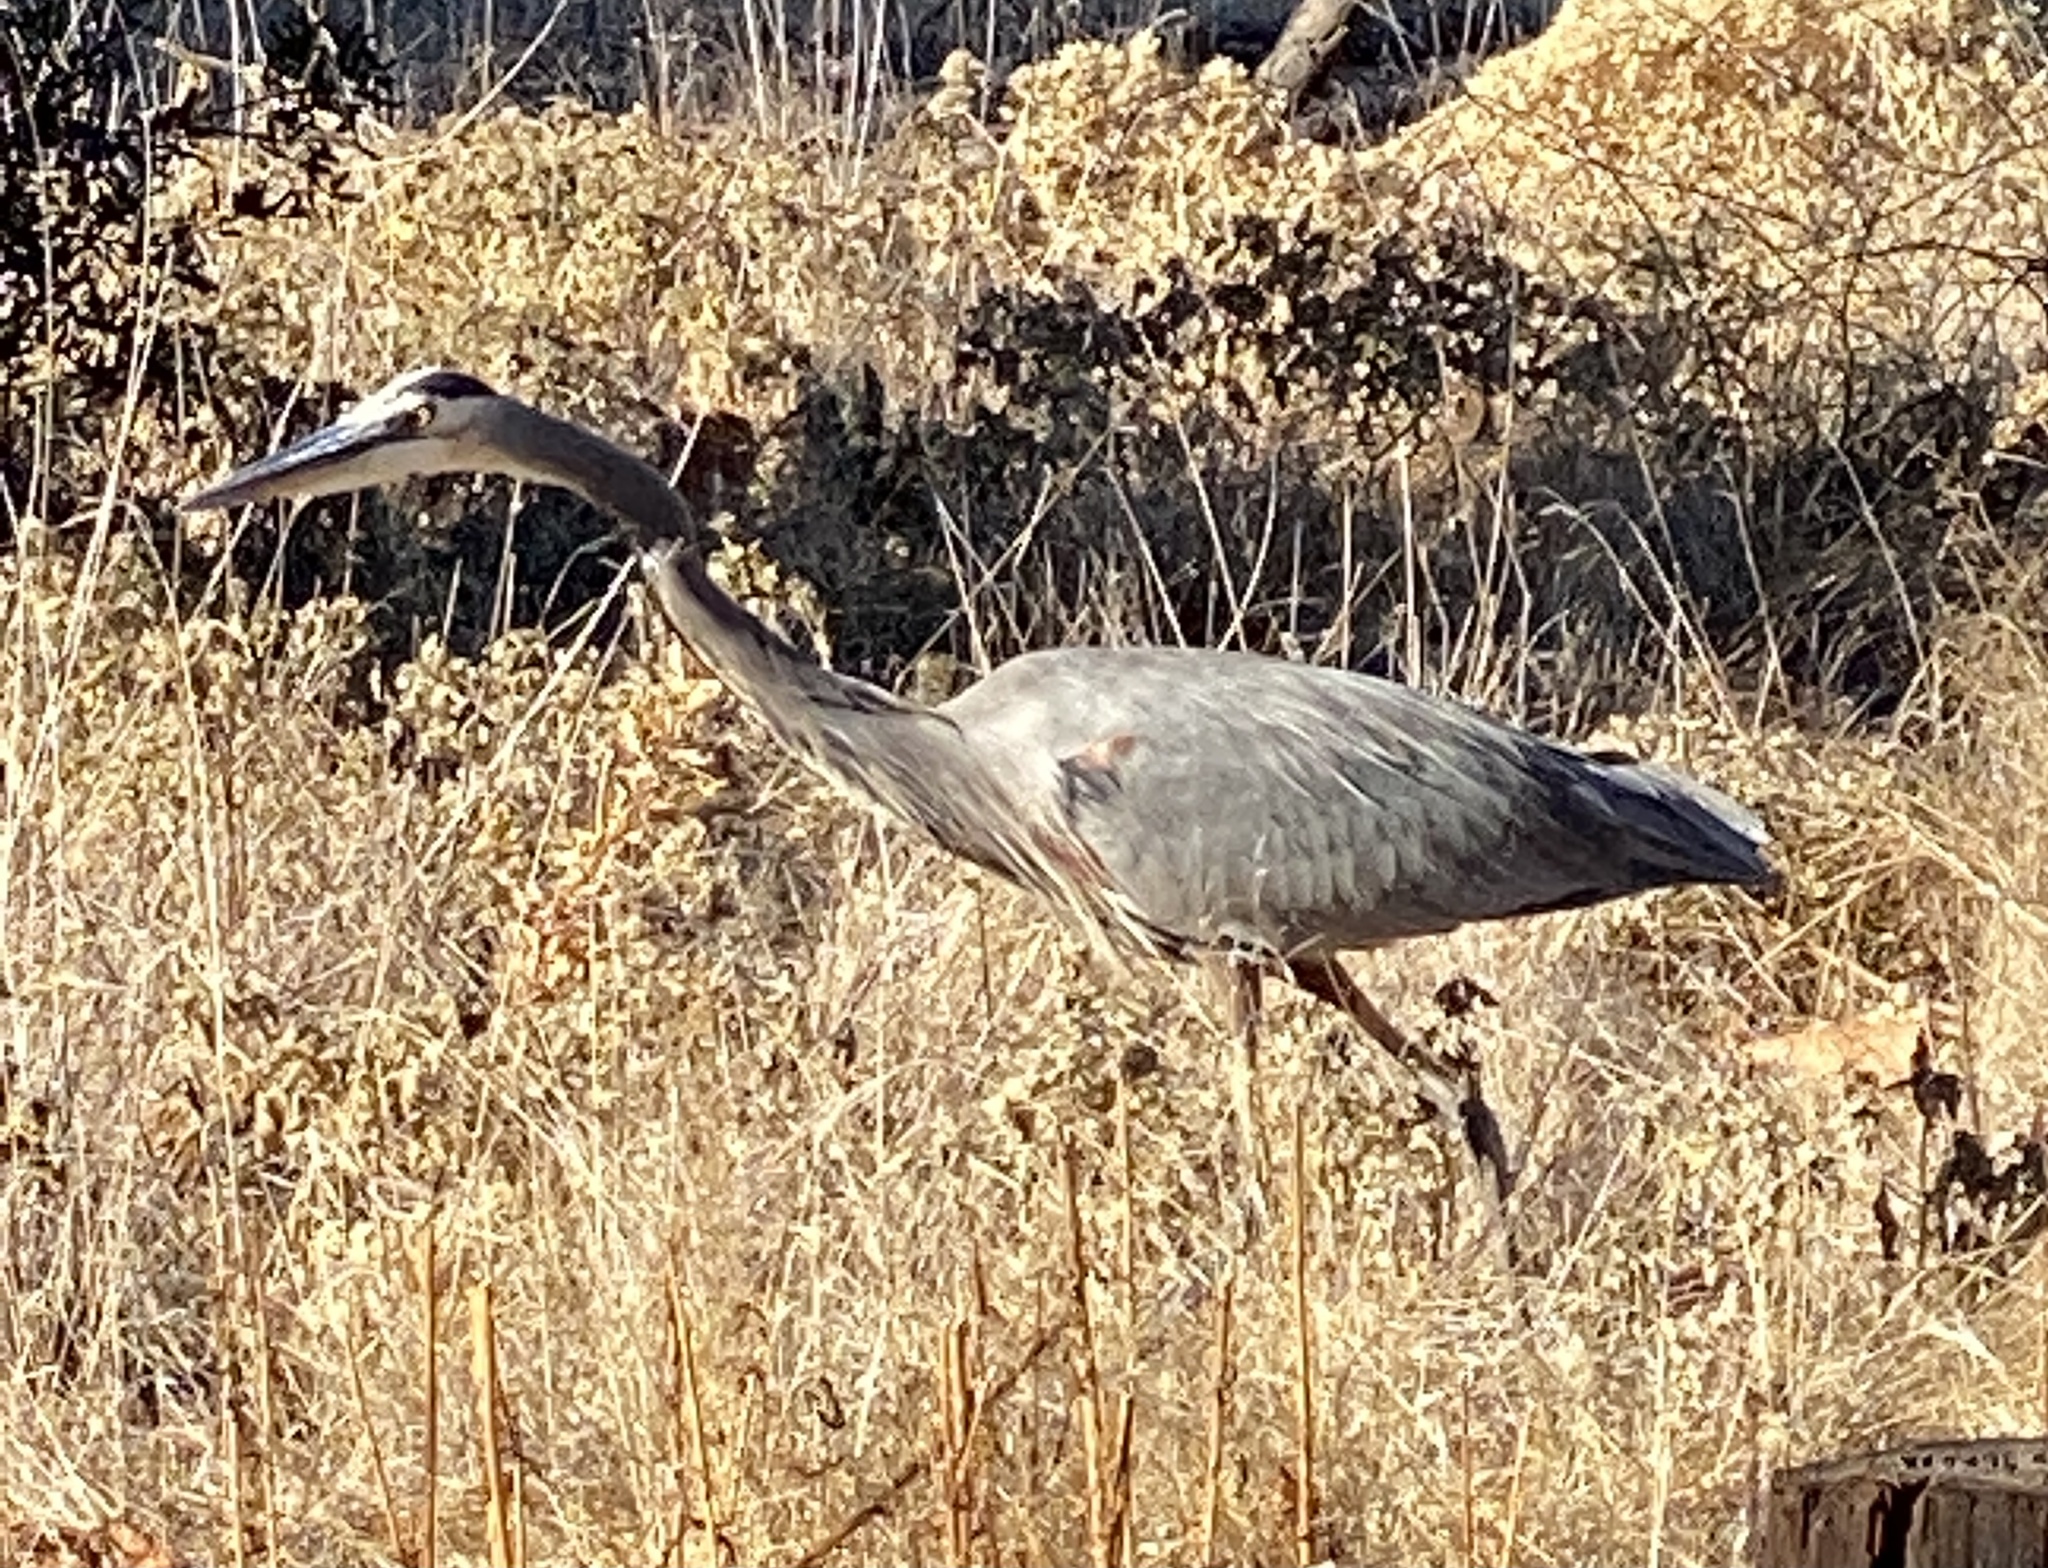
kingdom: Animalia
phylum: Chordata
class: Aves
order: Pelecaniformes
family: Ardeidae
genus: Ardea
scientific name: Ardea herodias
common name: Great blue heron
